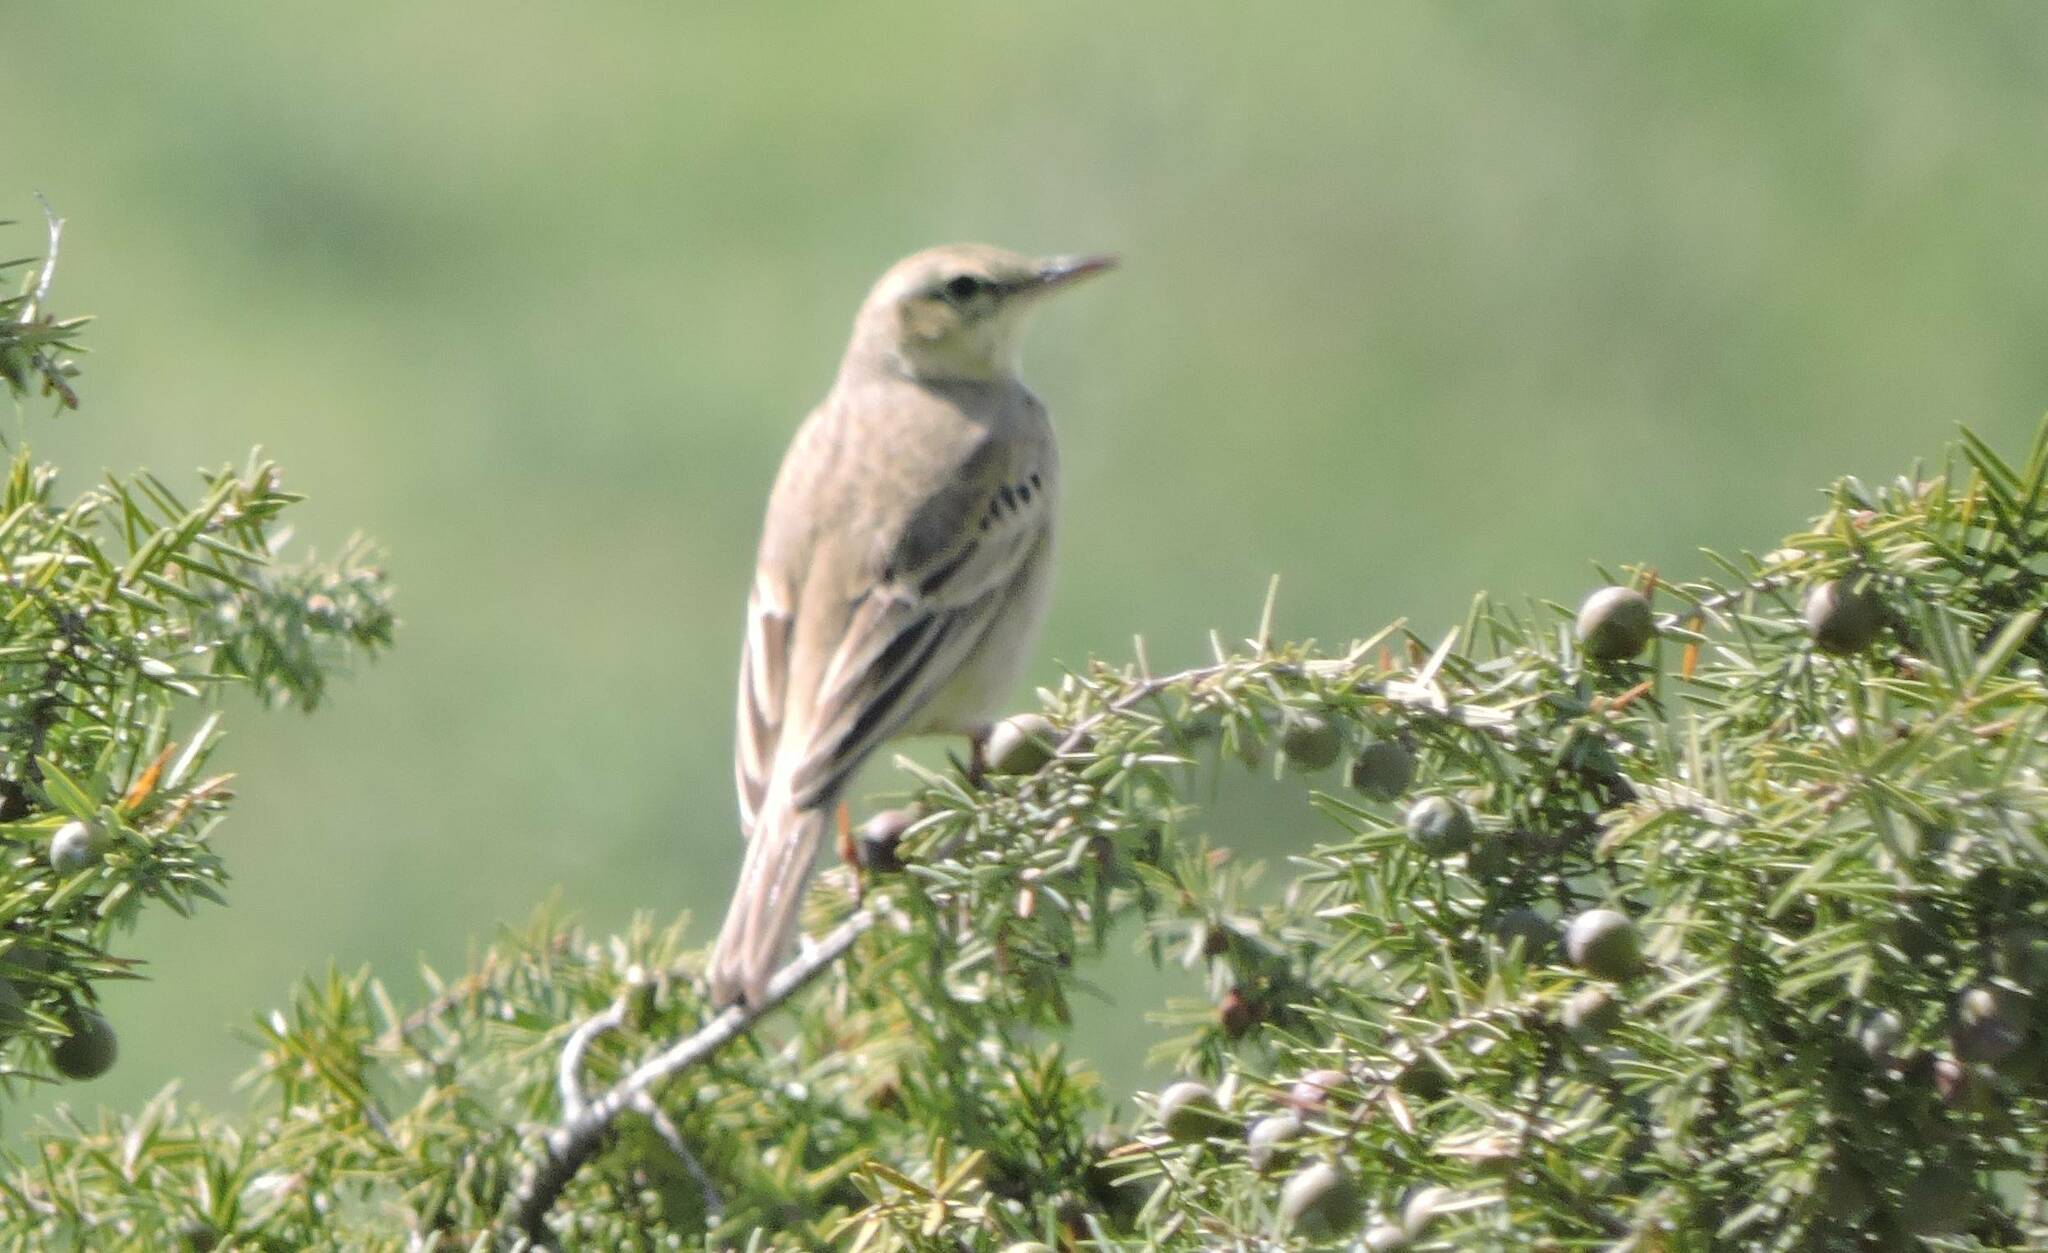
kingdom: Animalia
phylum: Chordata
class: Aves
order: Passeriformes
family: Motacillidae
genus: Anthus
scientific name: Anthus campestris
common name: Tawny pipit
